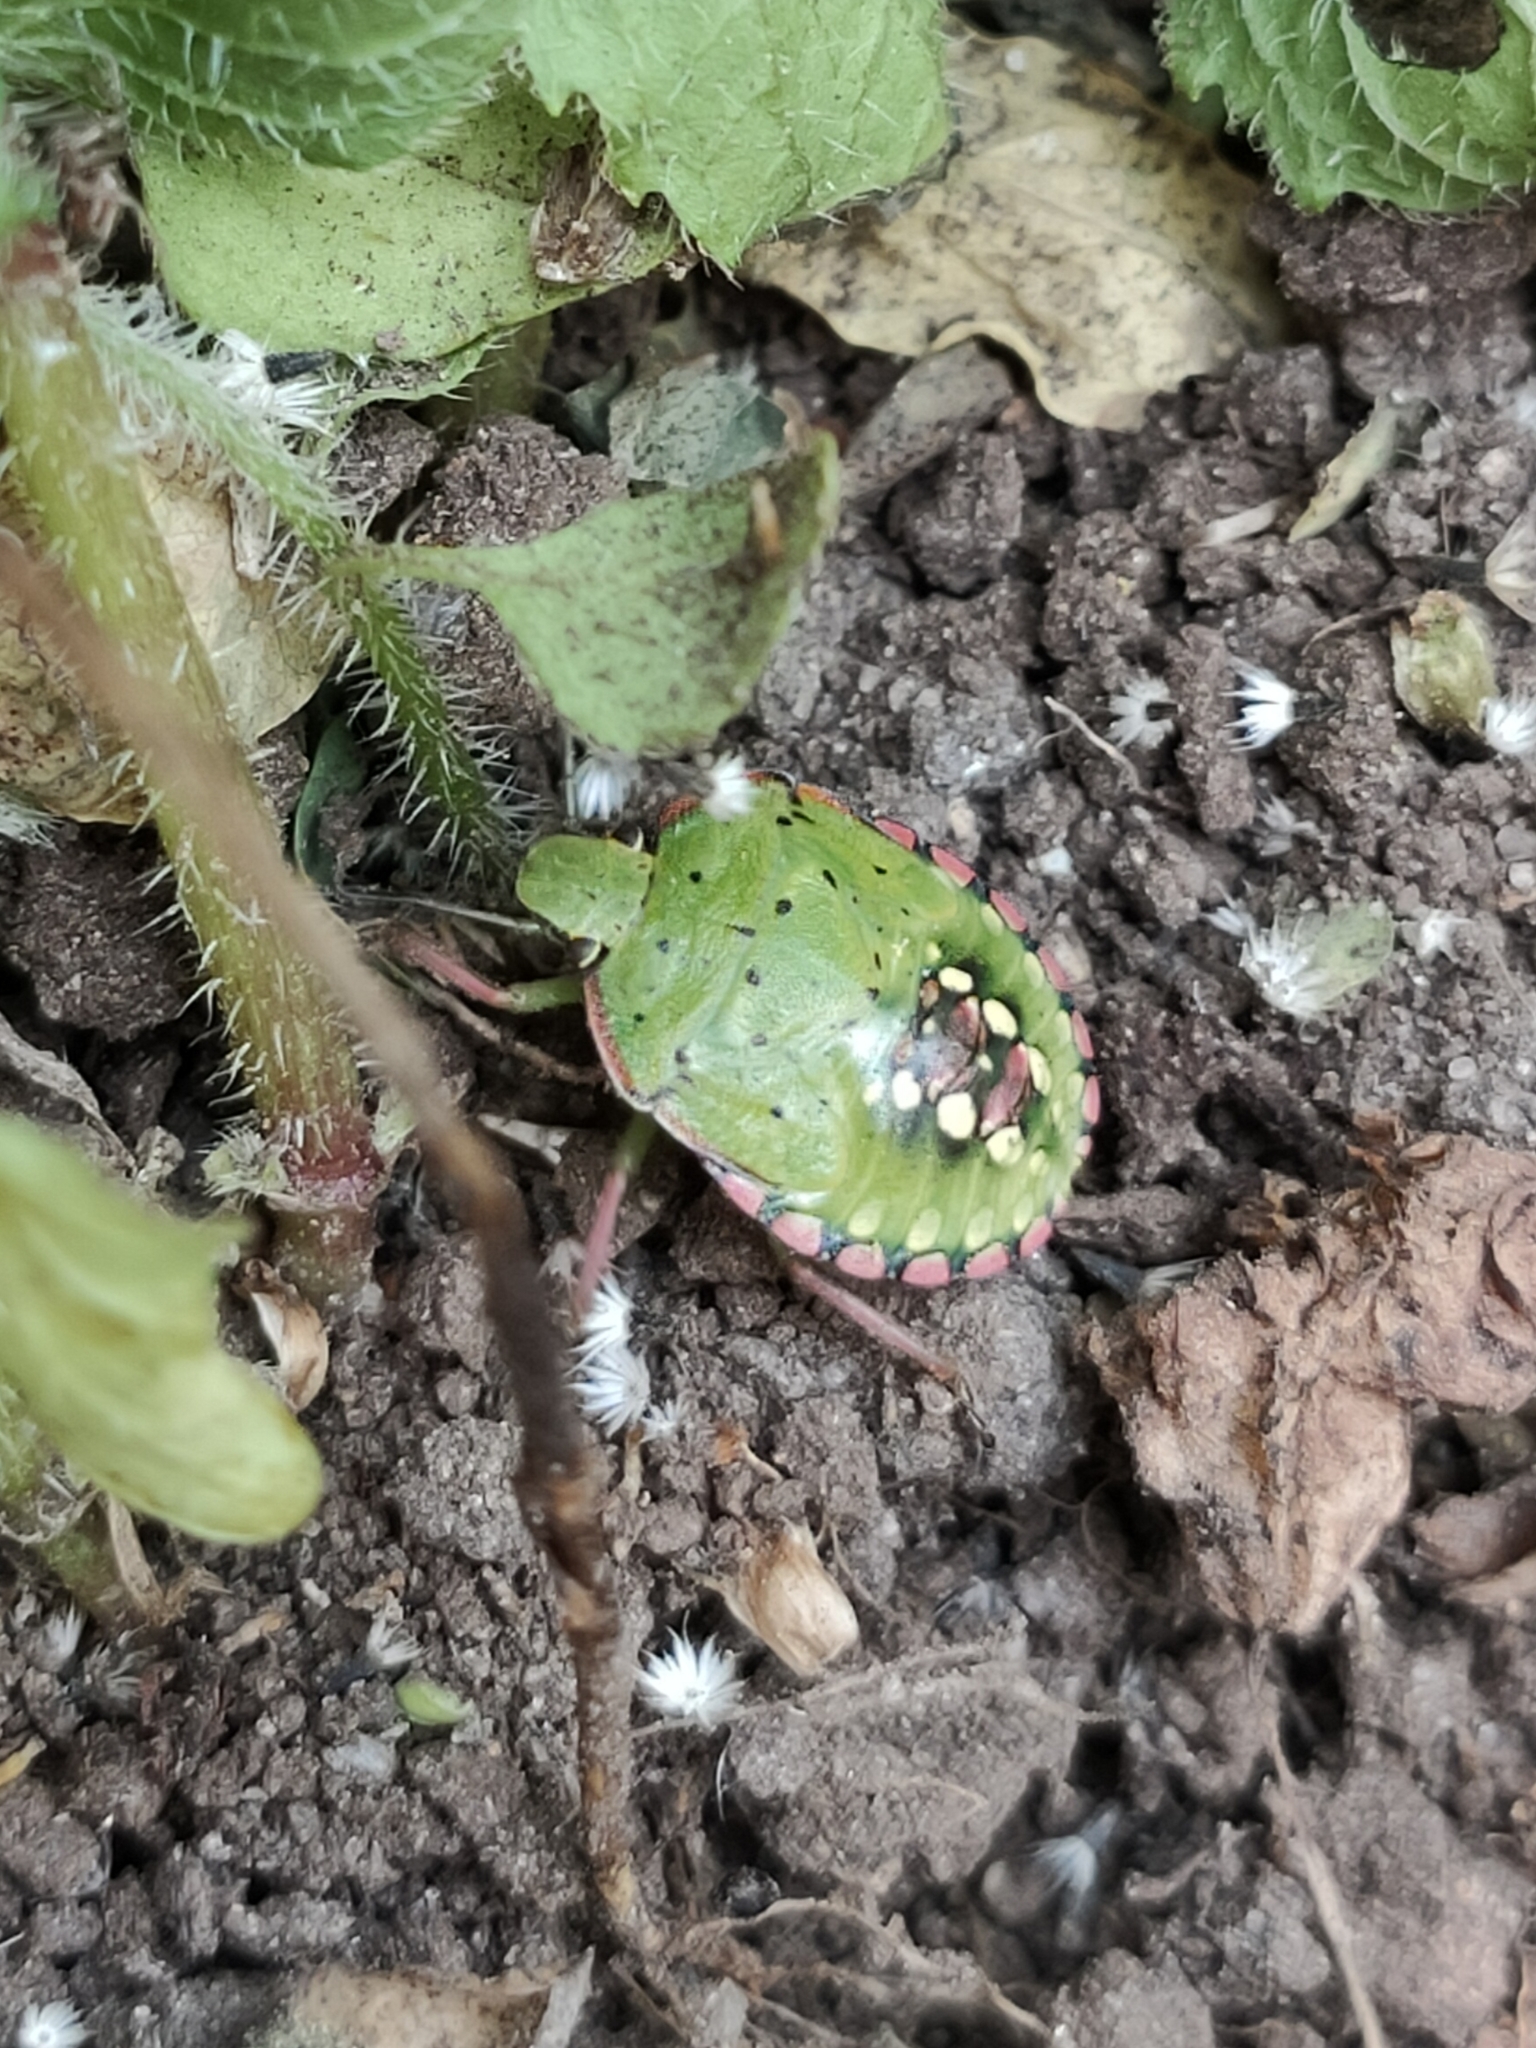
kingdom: Animalia
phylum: Arthropoda
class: Insecta
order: Hemiptera
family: Pentatomidae
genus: Nezara
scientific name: Nezara viridula
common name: Southern green stink bug
